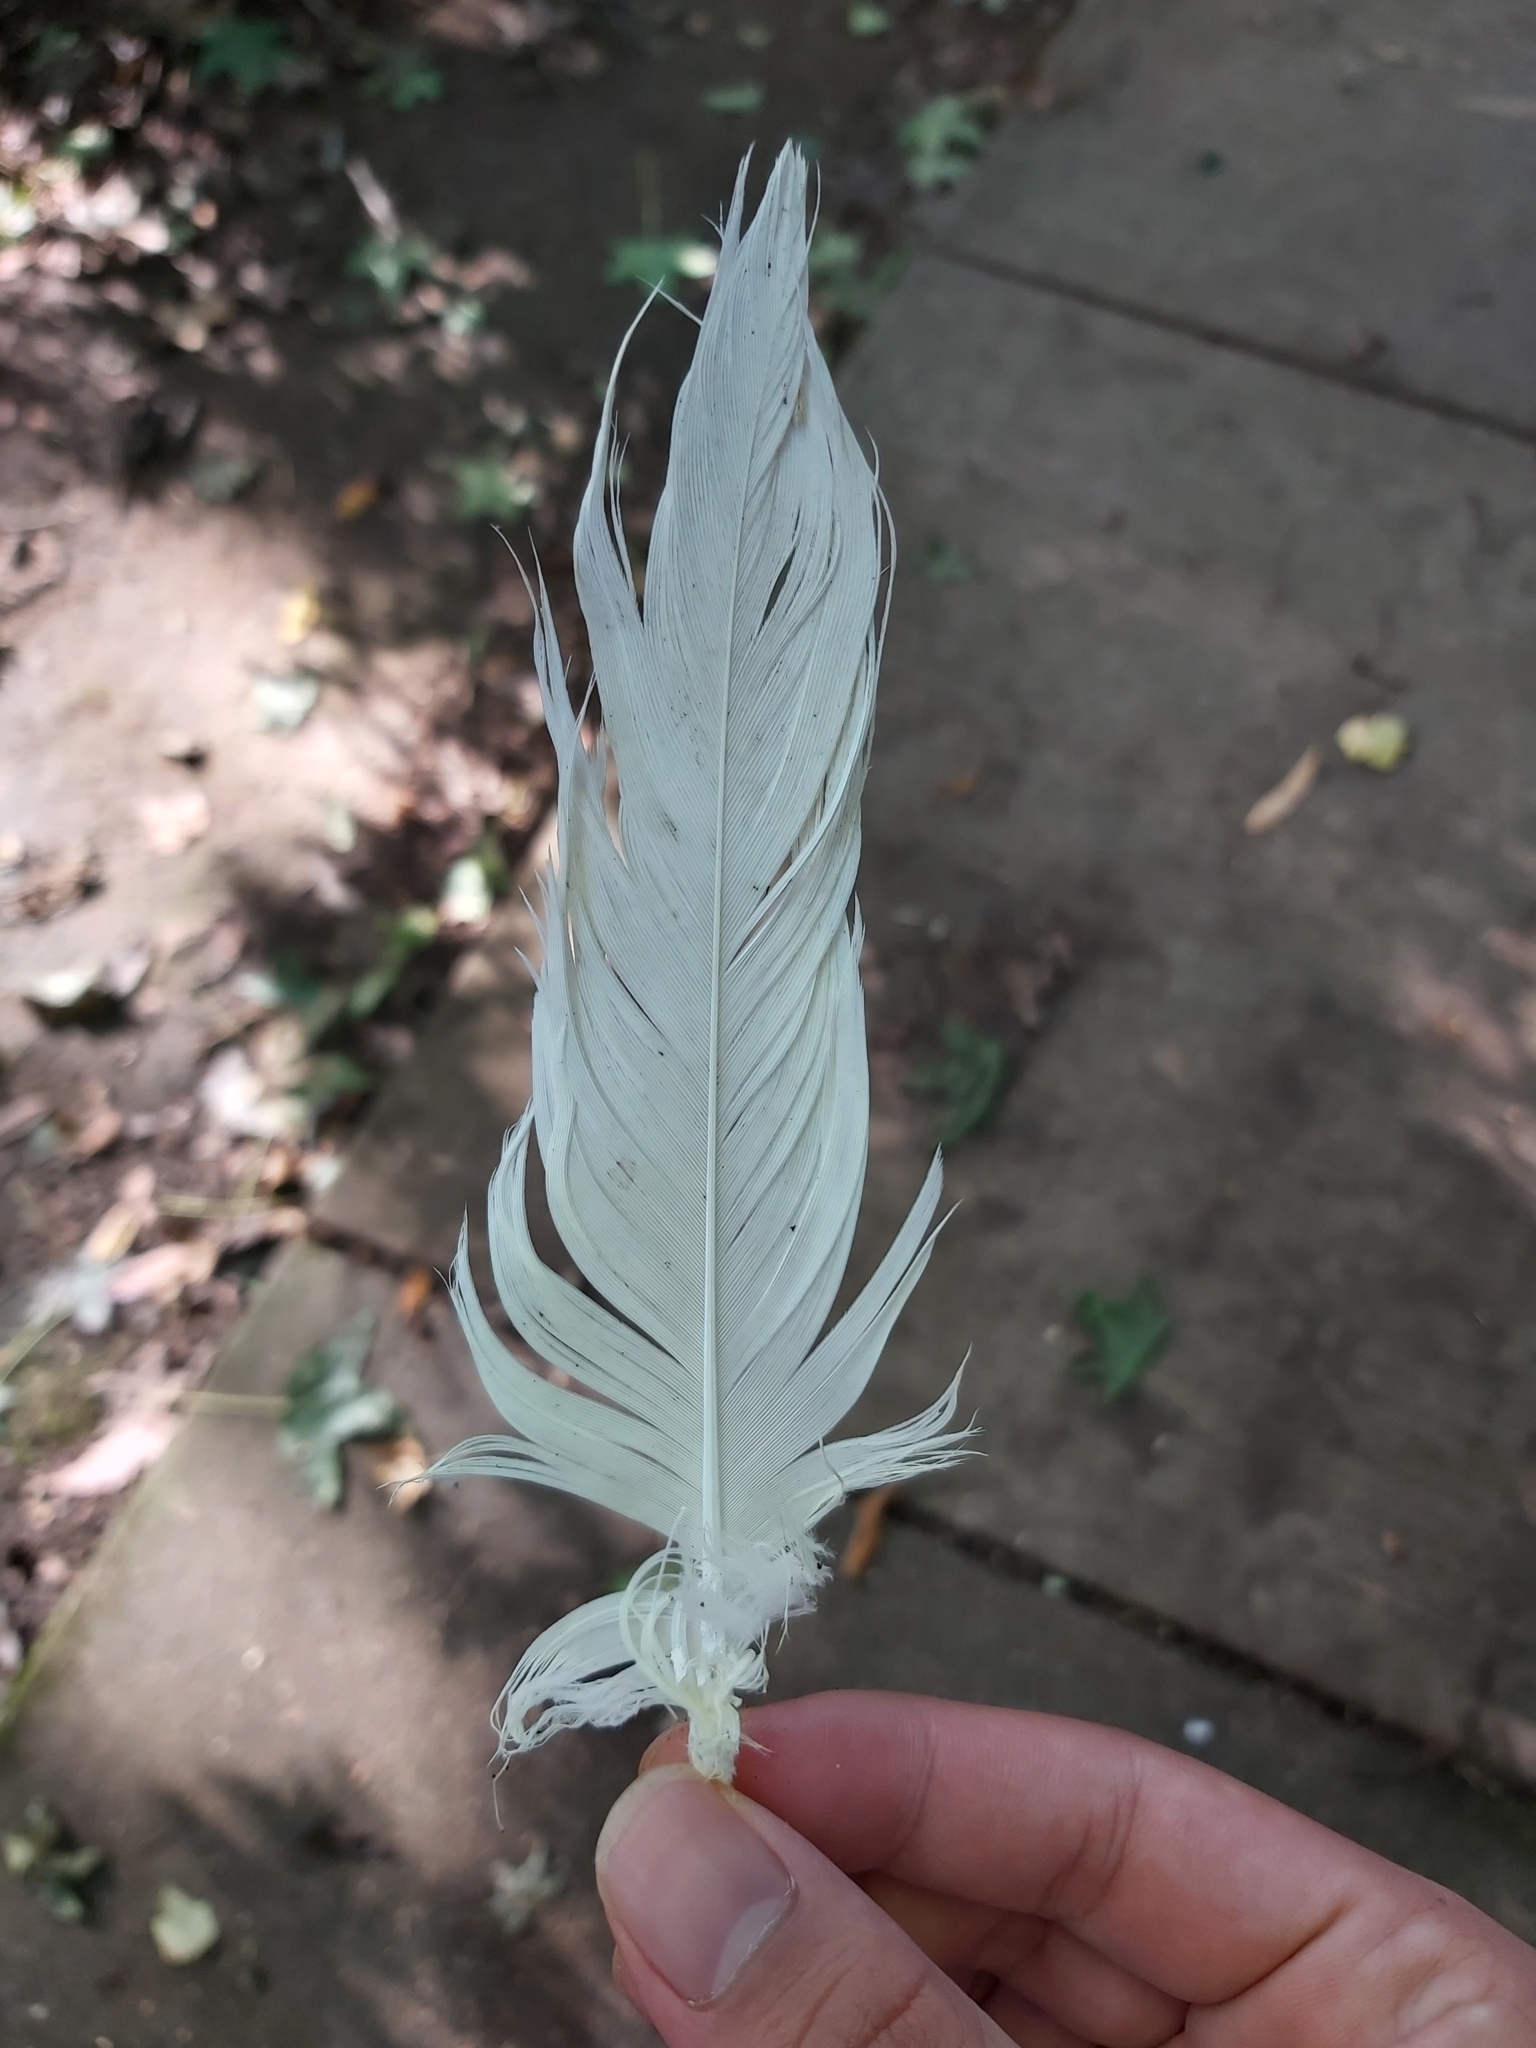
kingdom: Animalia
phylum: Chordata
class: Aves
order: Psittaciformes
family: Psittacidae
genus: Cacatua
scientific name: Cacatua galerita
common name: Sulphur-crested cockatoo
